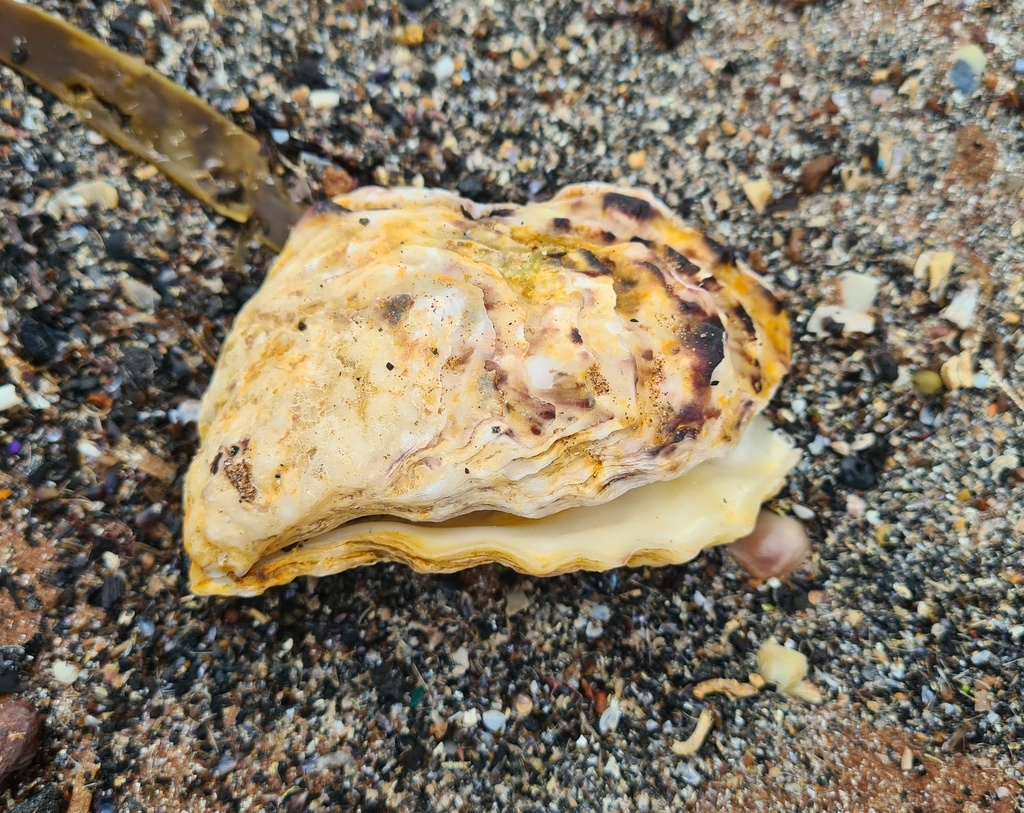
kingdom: Animalia
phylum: Mollusca
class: Bivalvia
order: Ostreida
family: Ostreidae
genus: Magallana
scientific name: Magallana gigas
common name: Pacific oyster
